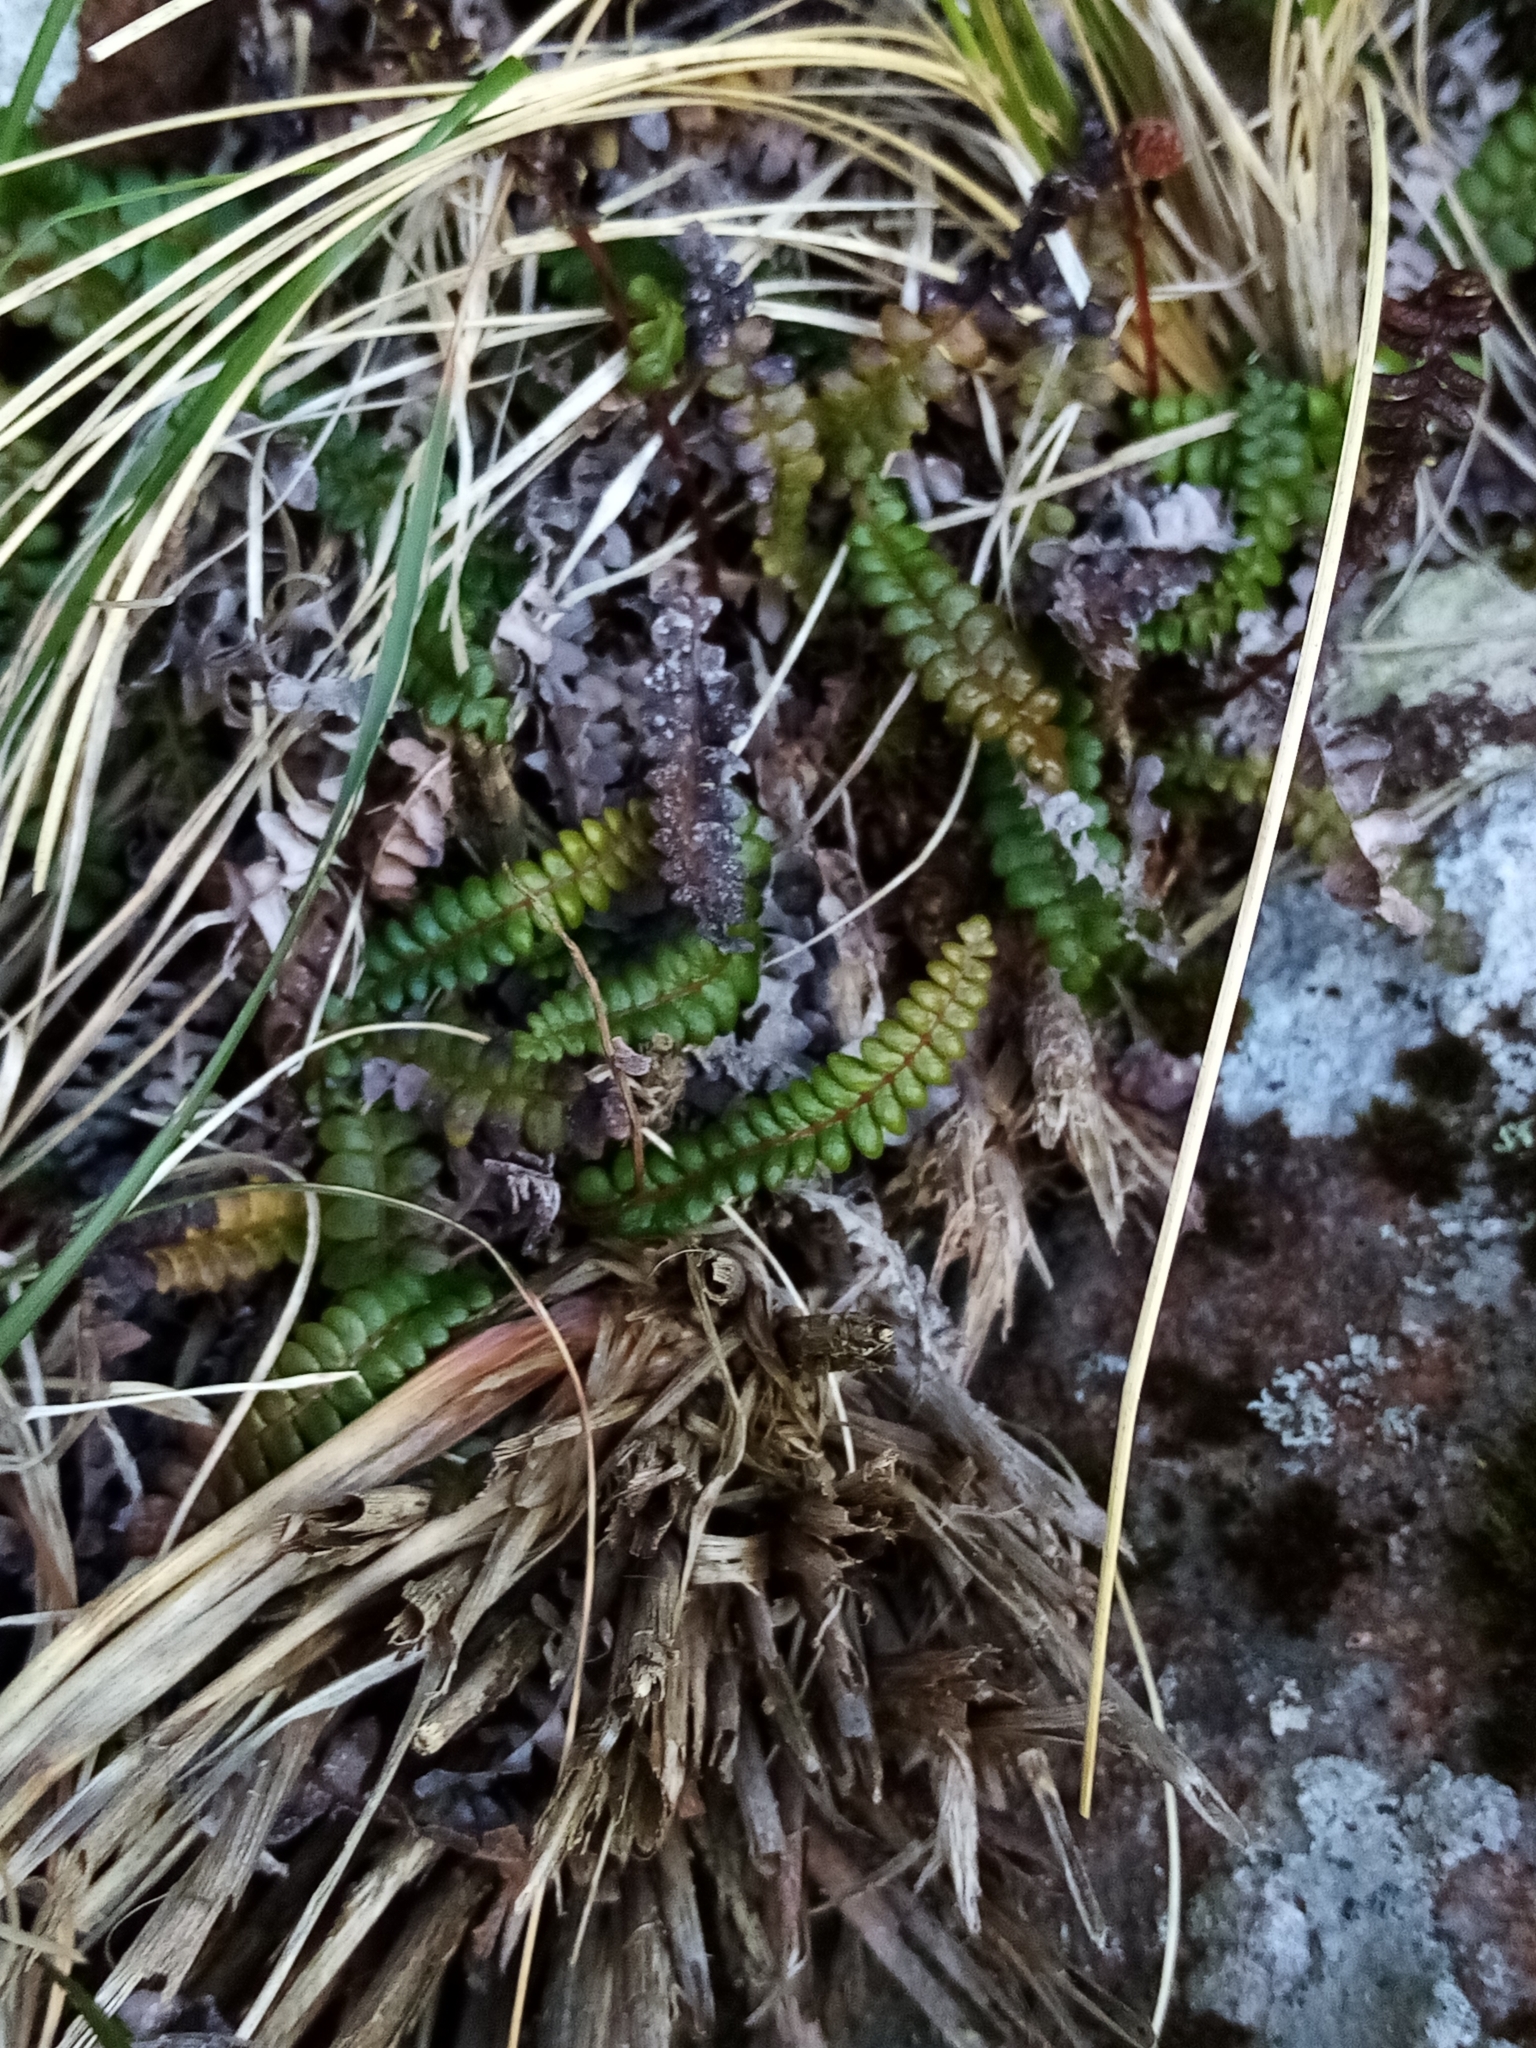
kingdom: Plantae
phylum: Tracheophyta
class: Polypodiopsida
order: Polypodiales
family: Blechnaceae
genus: Austroblechnum
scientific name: Austroblechnum penna-marina
